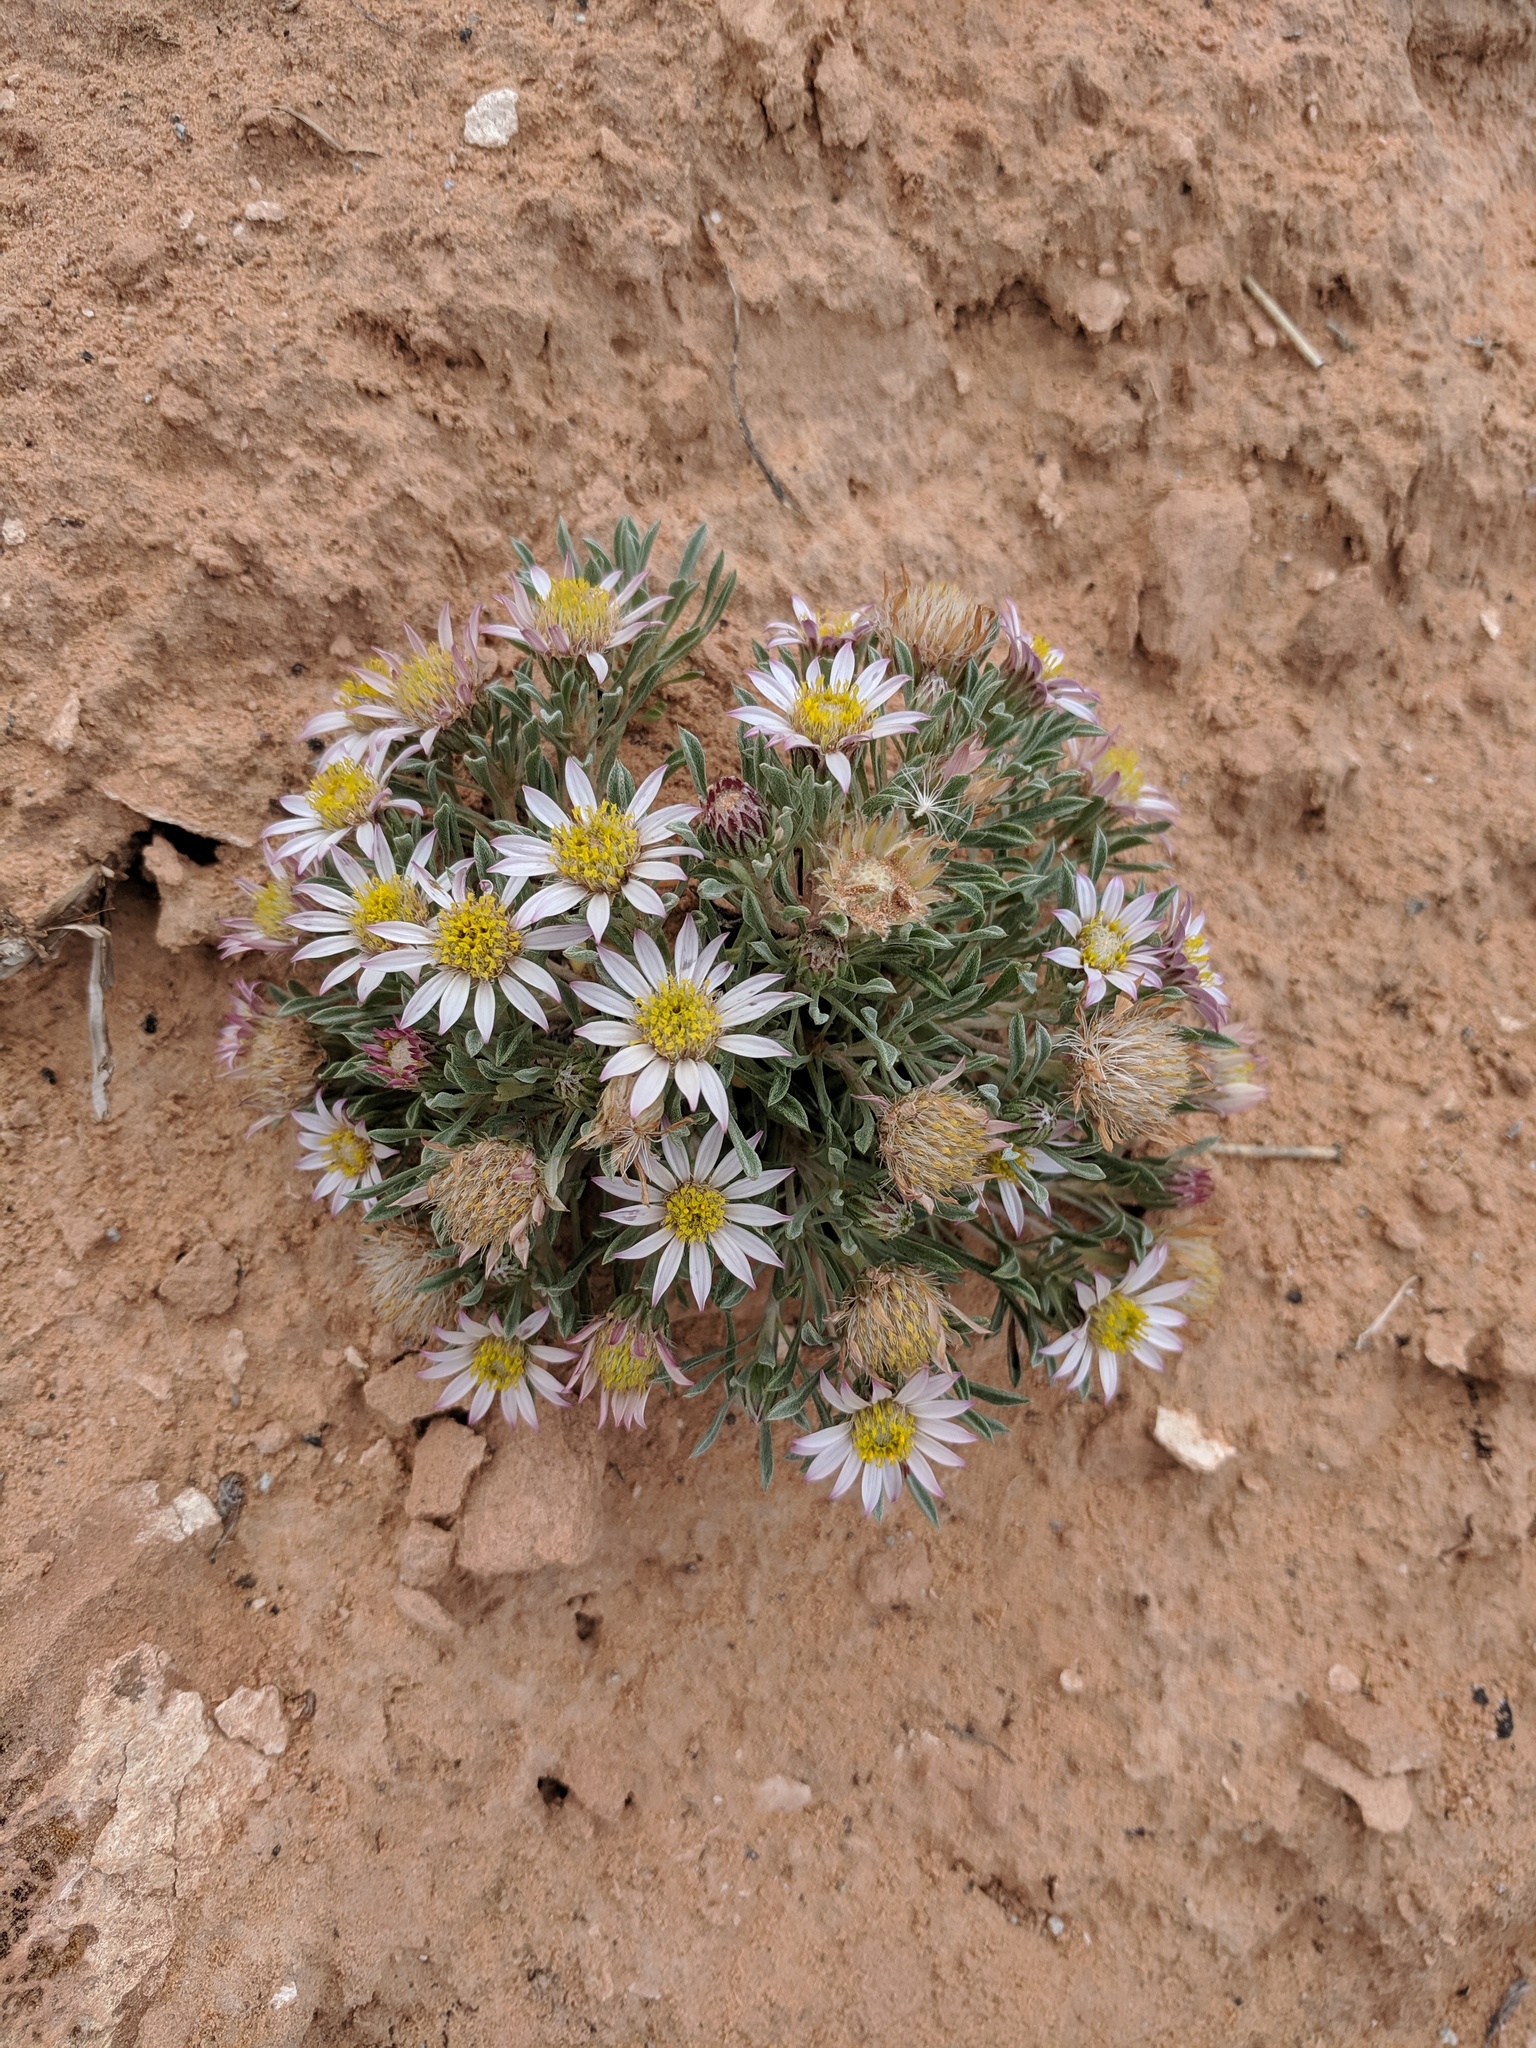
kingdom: Plantae
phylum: Tracheophyta
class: Magnoliopsida
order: Asterales
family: Asteraceae
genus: Townsendia
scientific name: Townsendia incana
